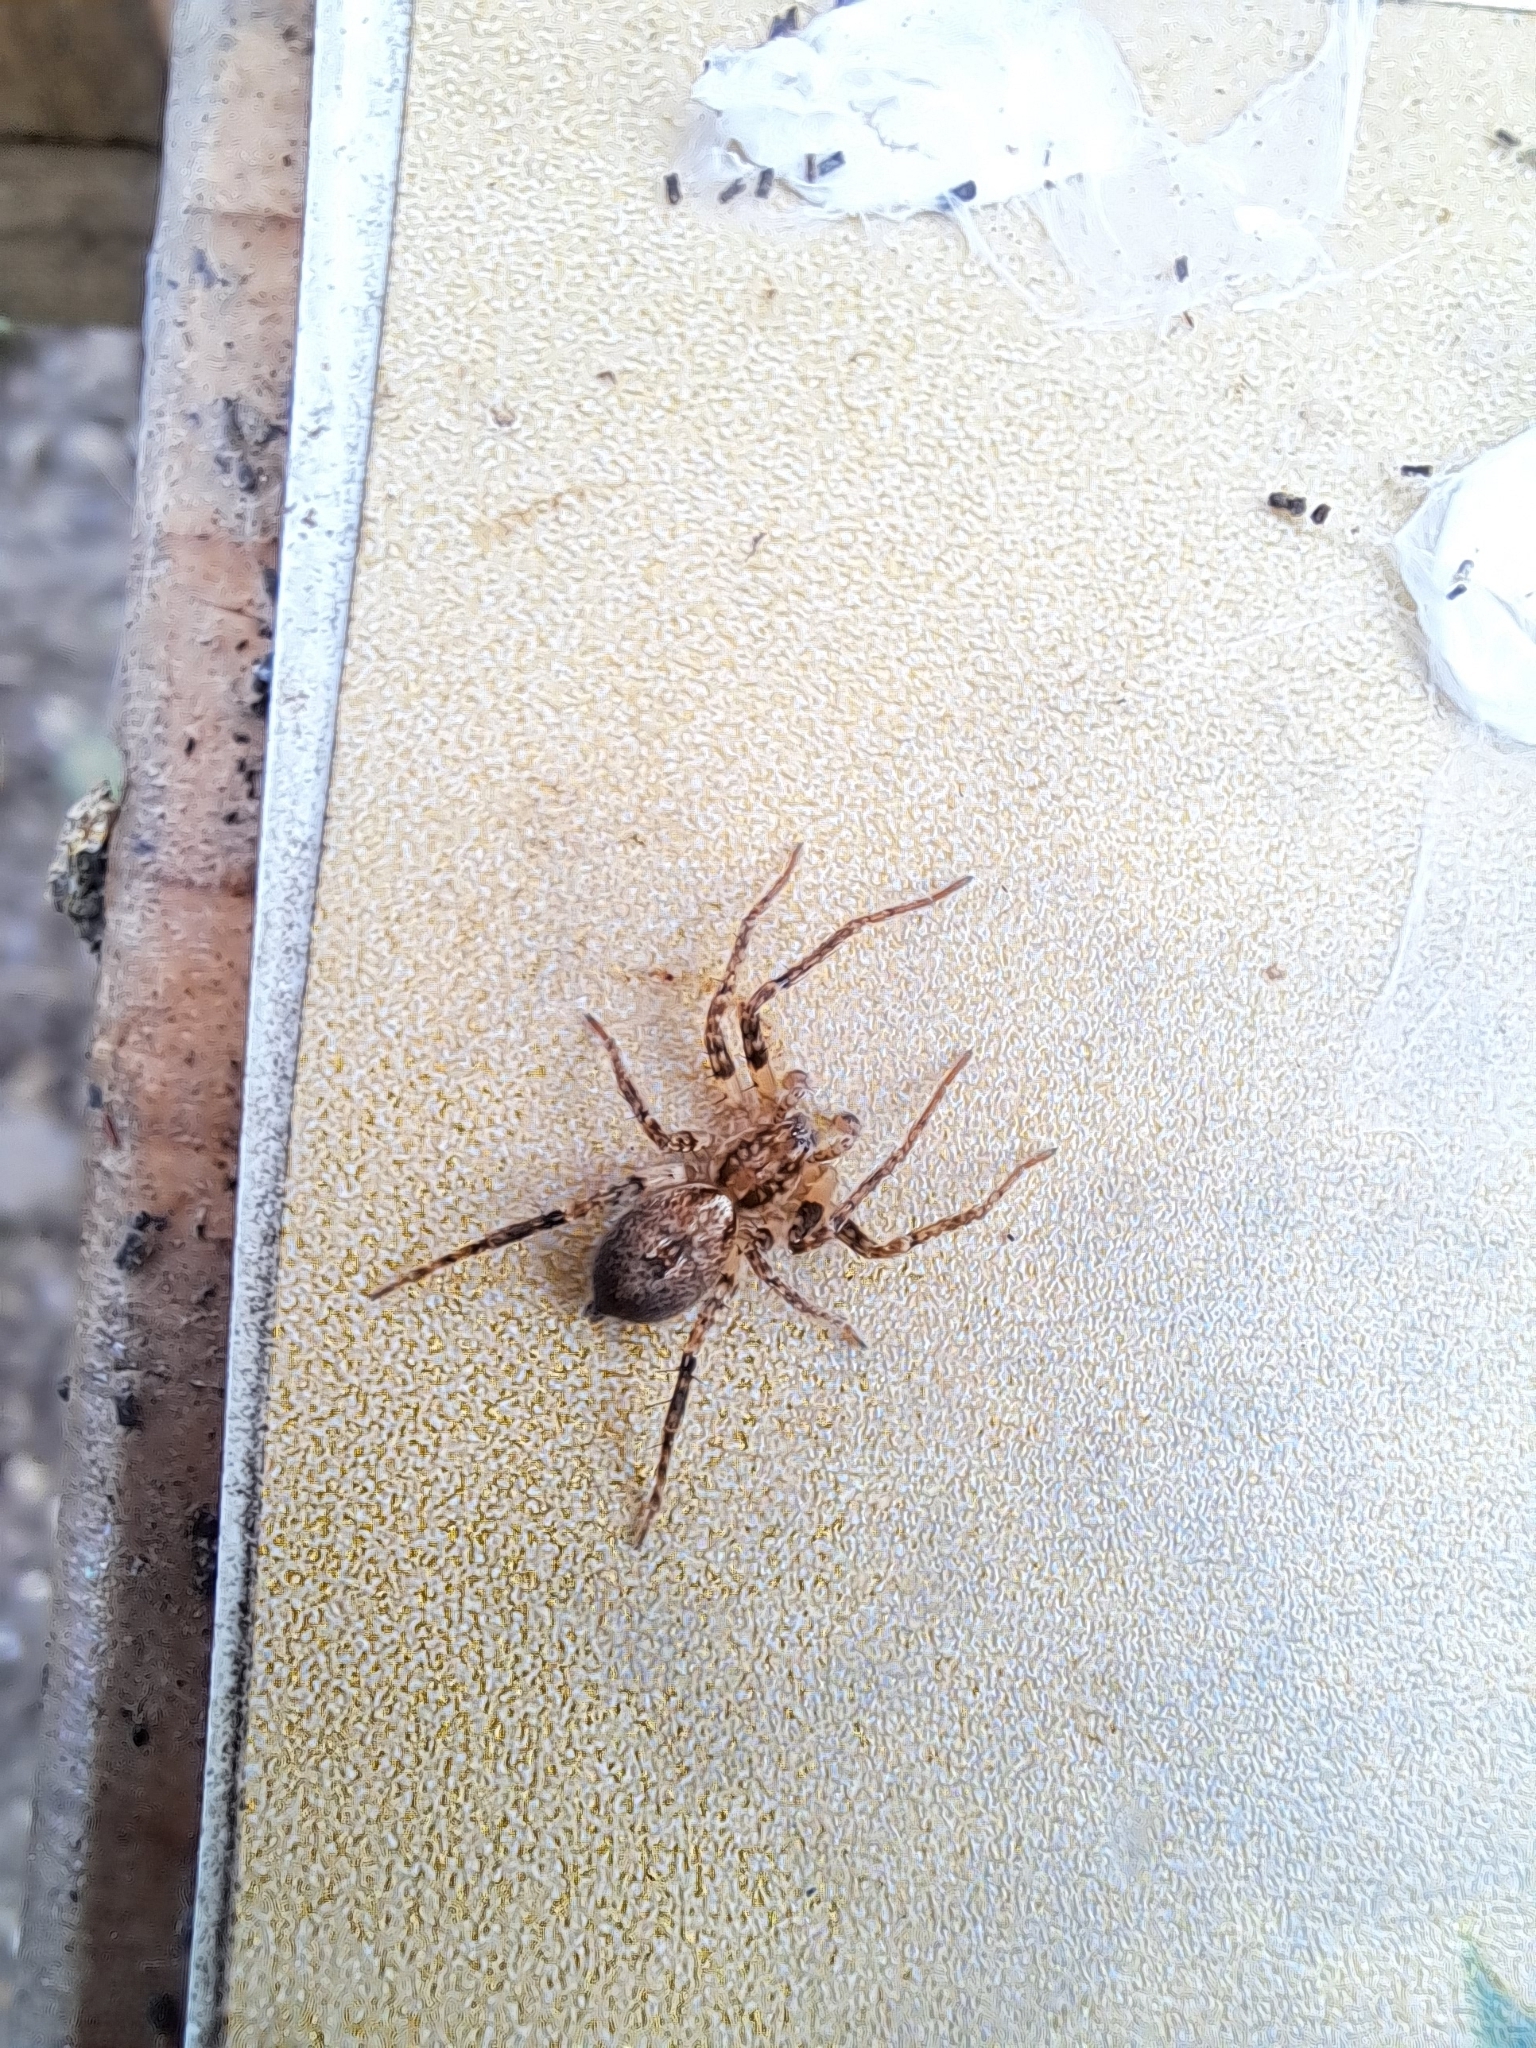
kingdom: Animalia
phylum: Arthropoda
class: Arachnida
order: Araneae
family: Anyphaenidae
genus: Anyphaena
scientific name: Anyphaena accentuata
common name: Buzzing spider
